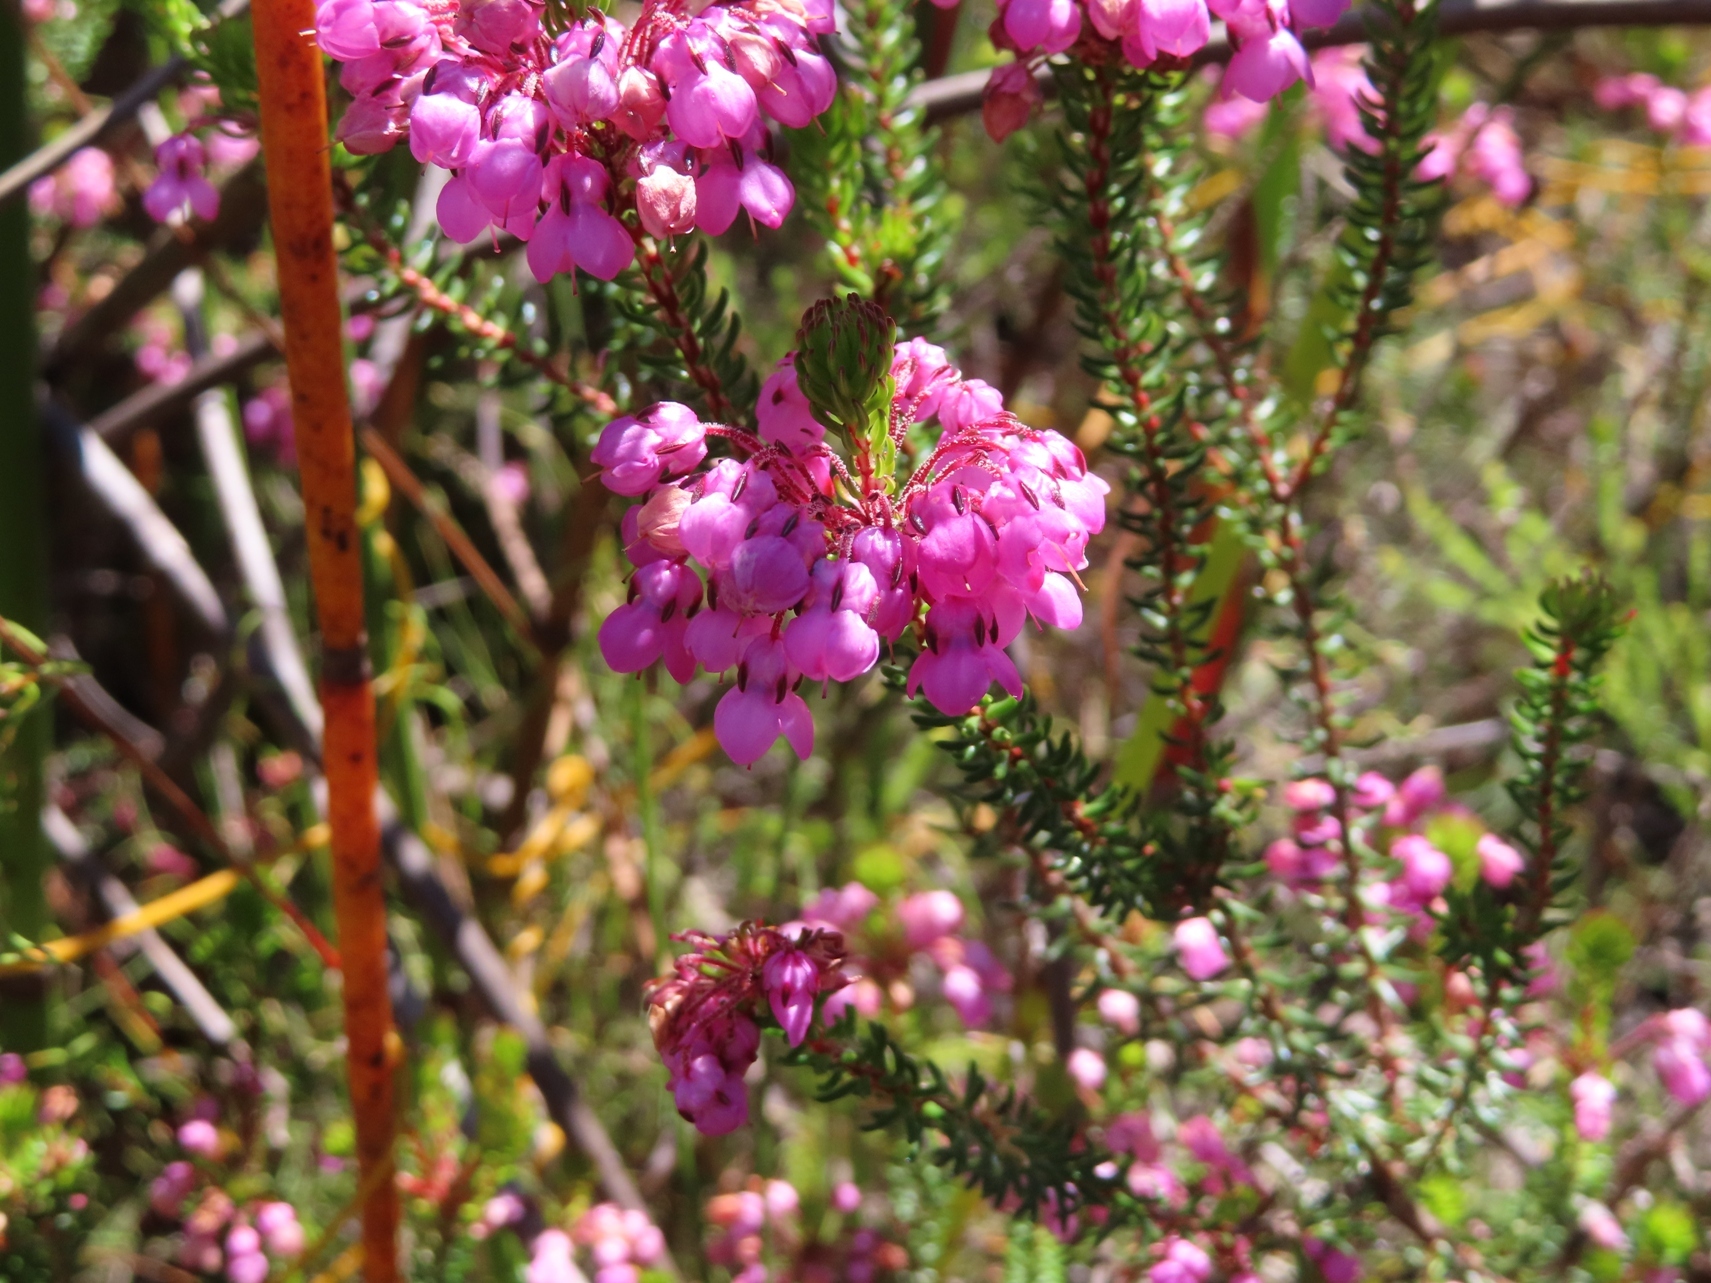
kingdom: Plantae
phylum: Tracheophyta
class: Magnoliopsida
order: Ericales
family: Ericaceae
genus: Erica
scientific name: Erica cubica
